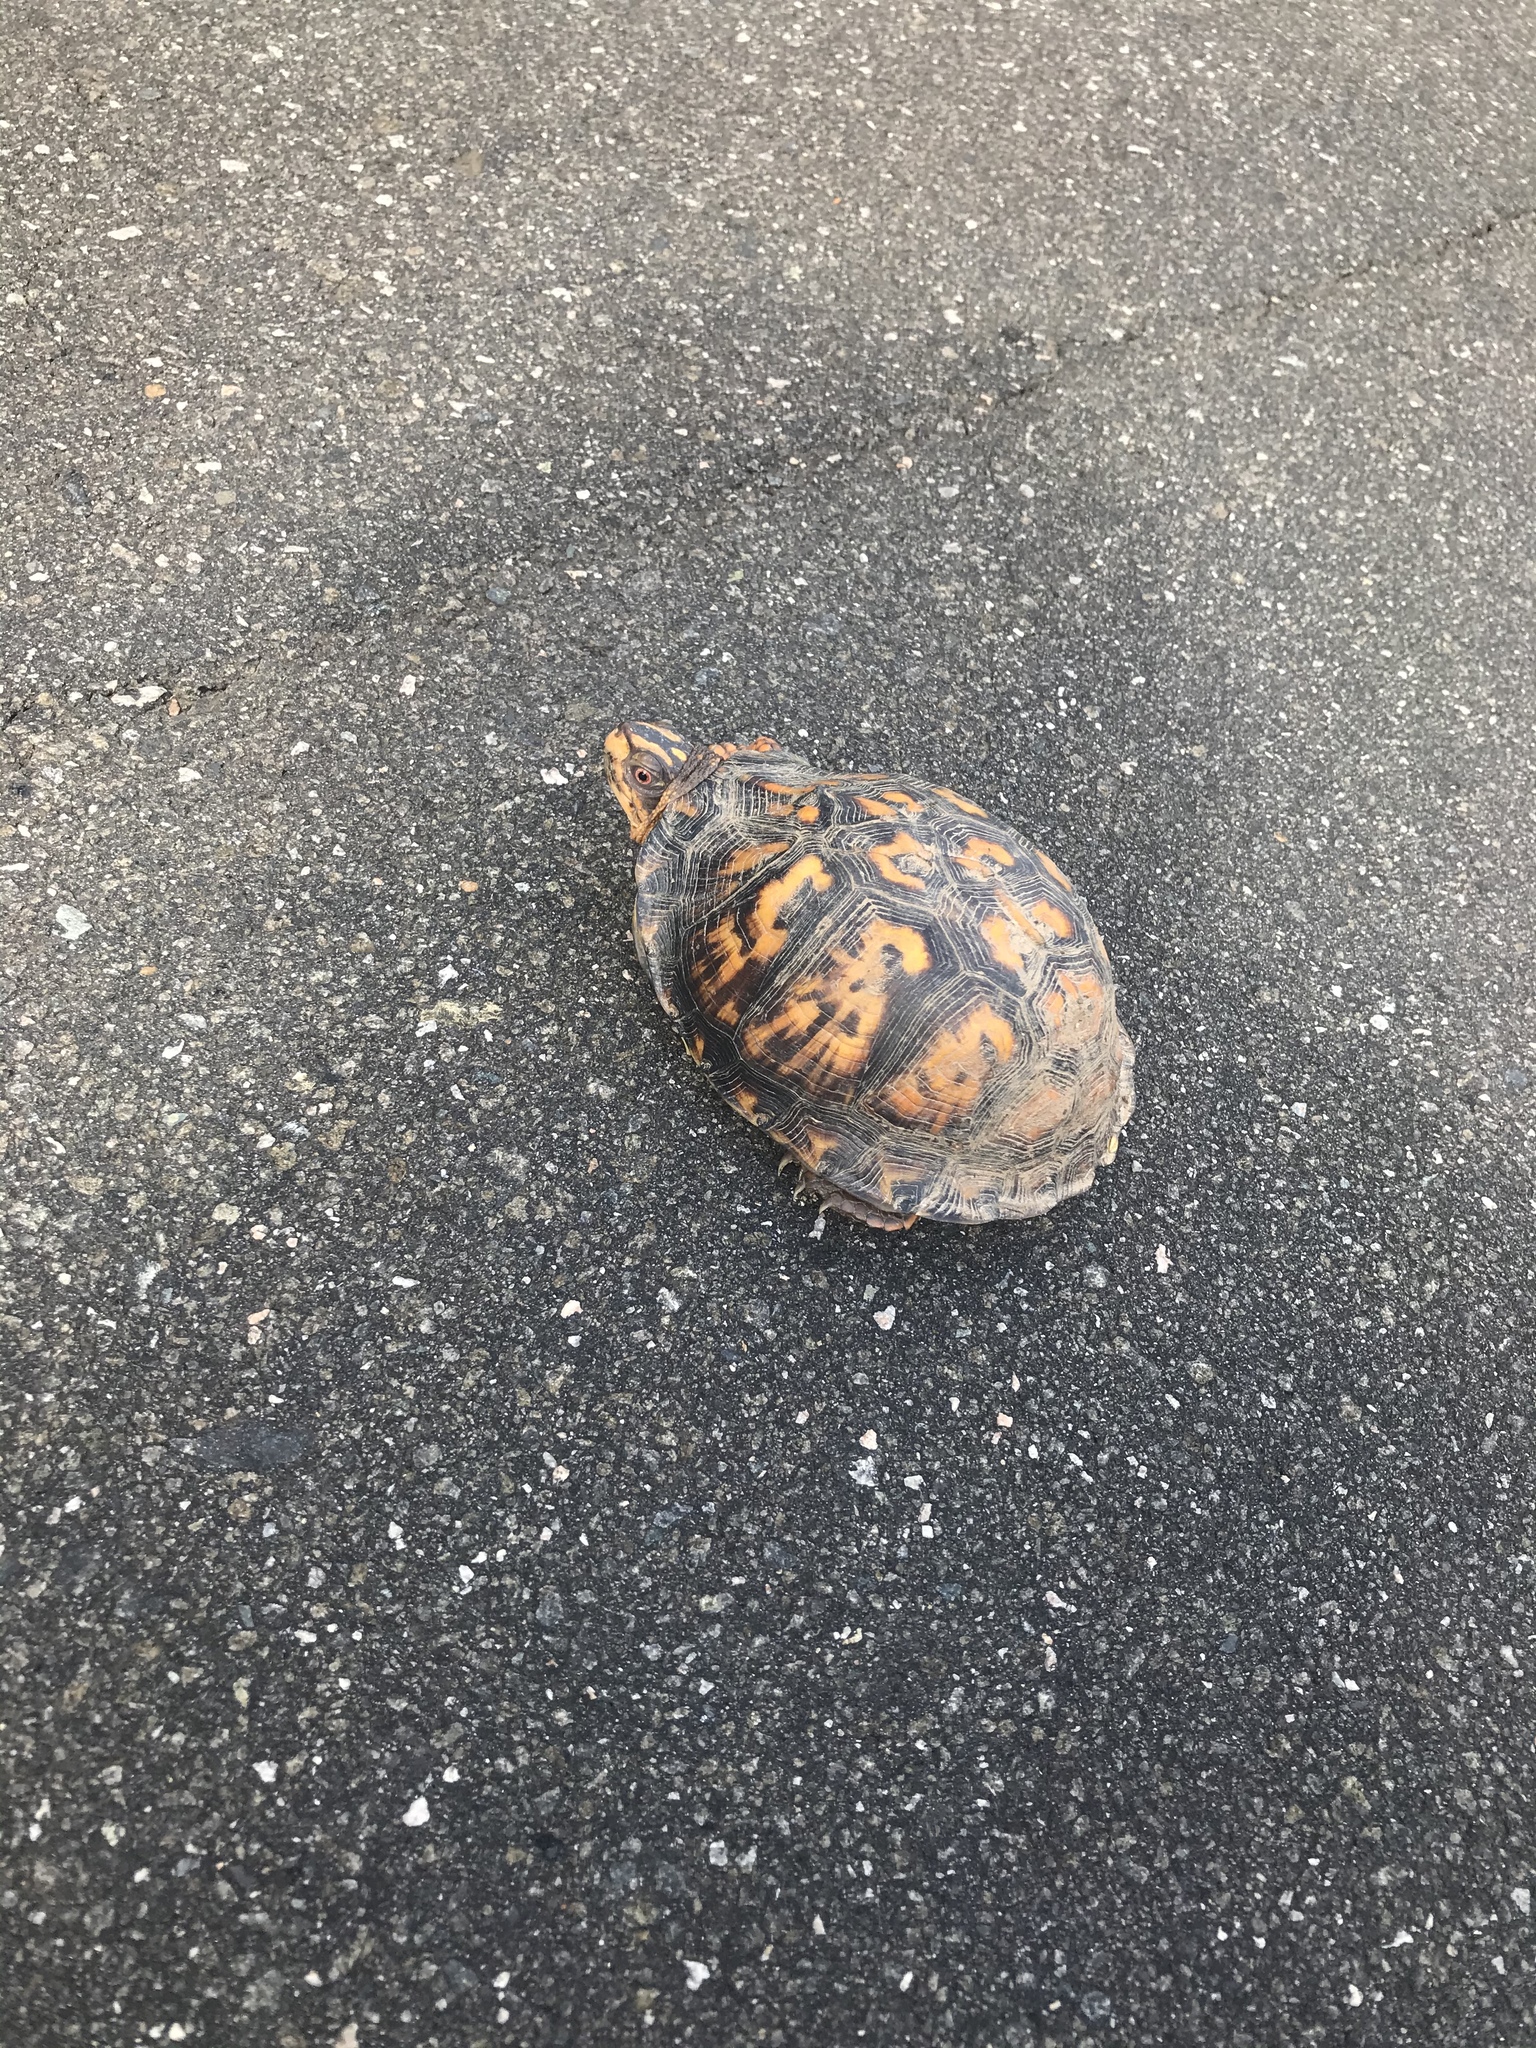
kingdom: Animalia
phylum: Chordata
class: Testudines
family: Emydidae
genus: Terrapene
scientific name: Terrapene carolina
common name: Common box turtle
